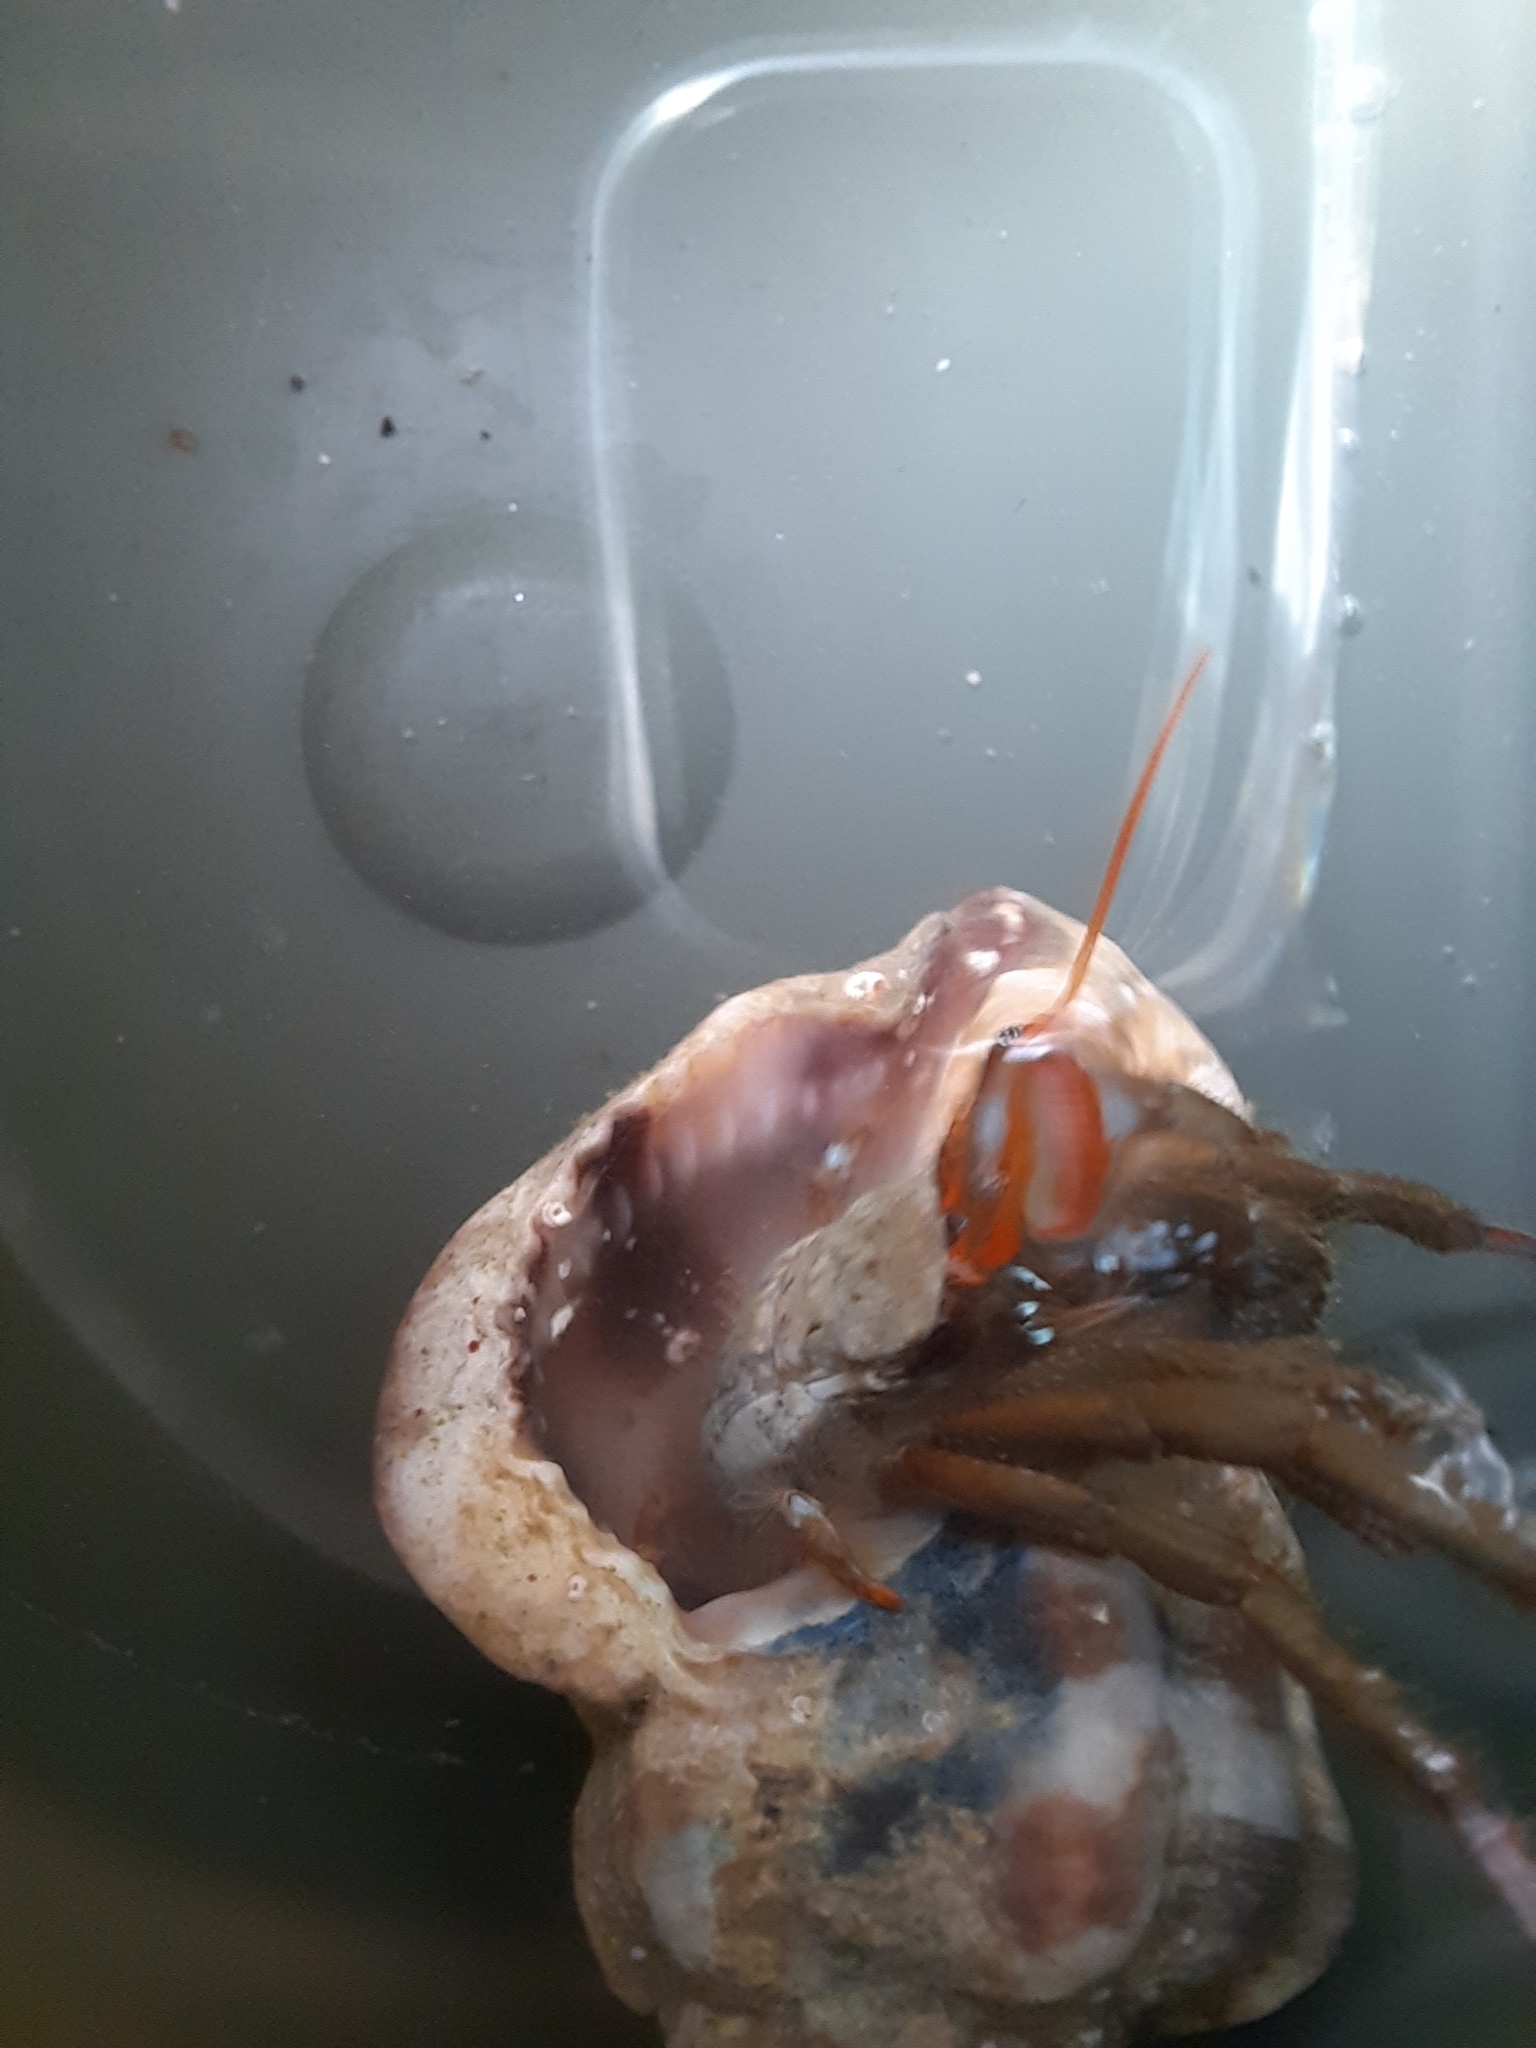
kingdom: Animalia
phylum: Arthropoda
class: Malacostraca
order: Decapoda
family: Diogenidae
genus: Clibanarius
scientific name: Clibanarius erythropus
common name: Hermit crab
